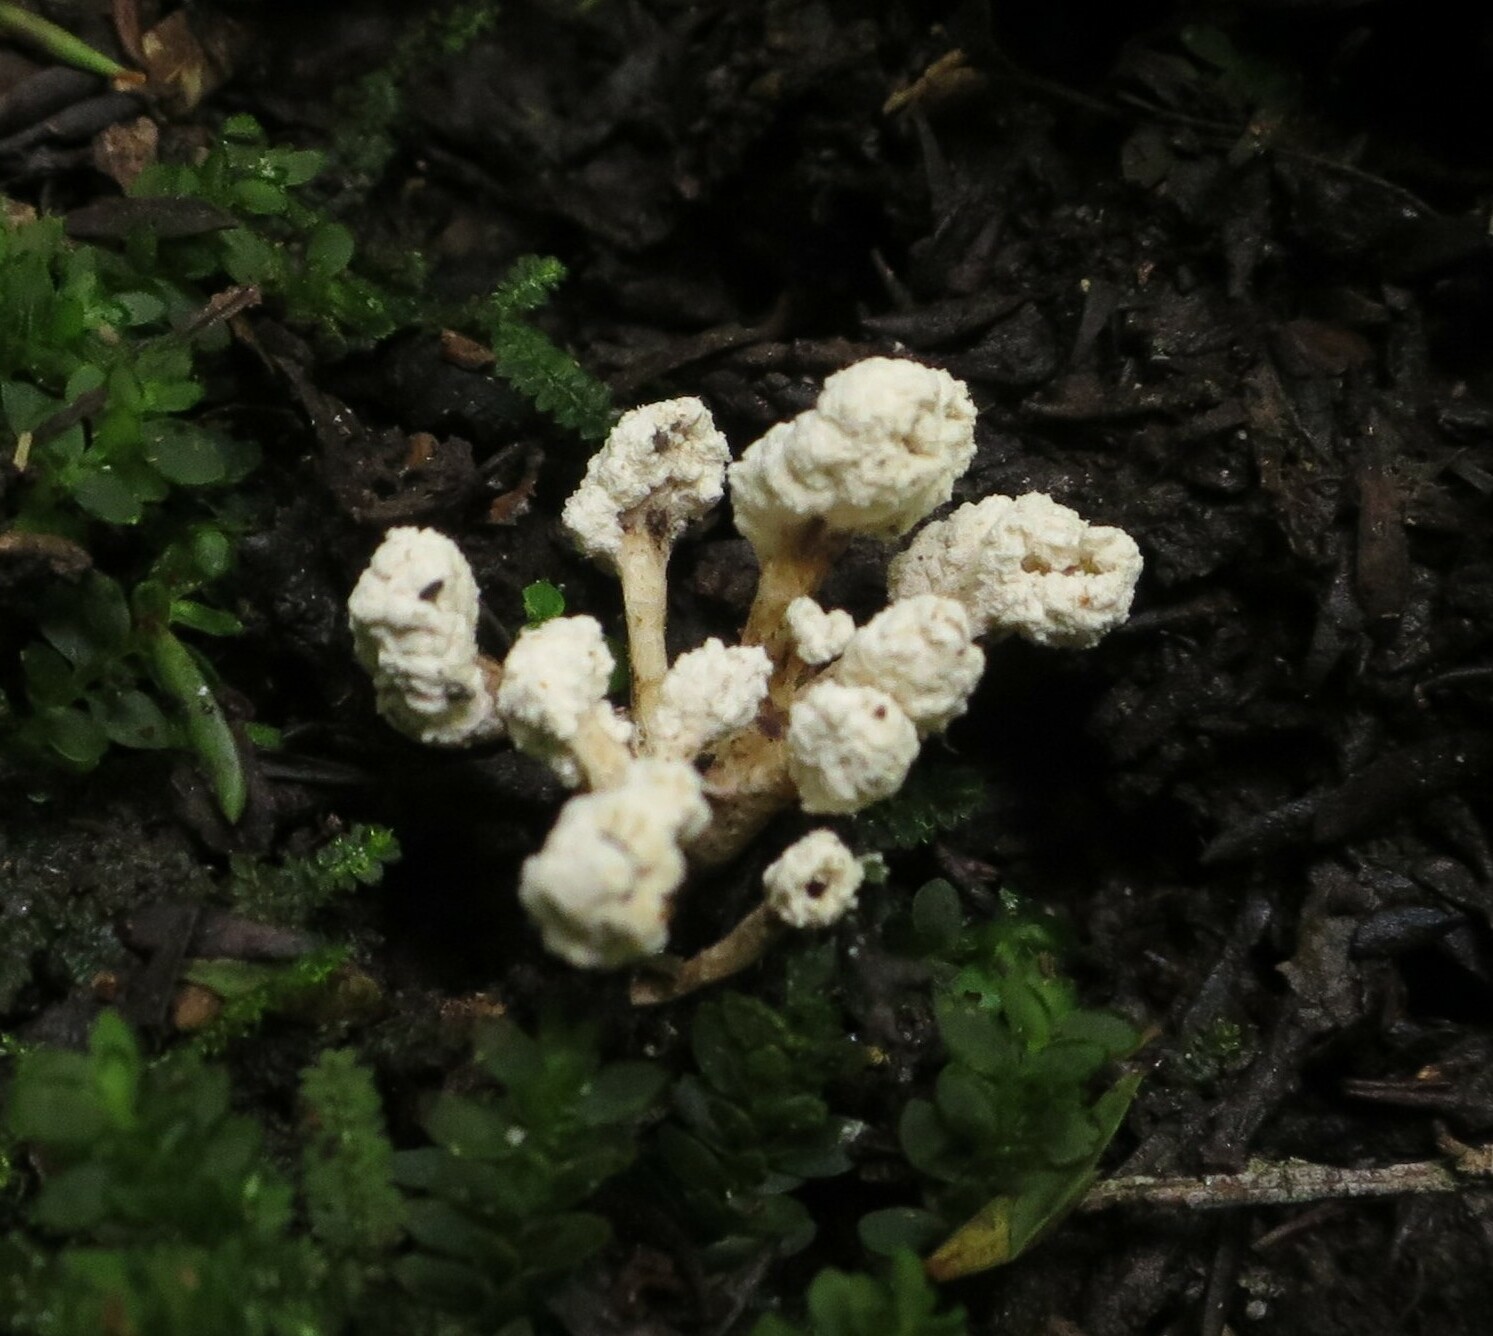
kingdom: Fungi
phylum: Ascomycota
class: Sordariomycetes
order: Hypocreales
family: Cordycipitaceae
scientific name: Cordycipitaceae
